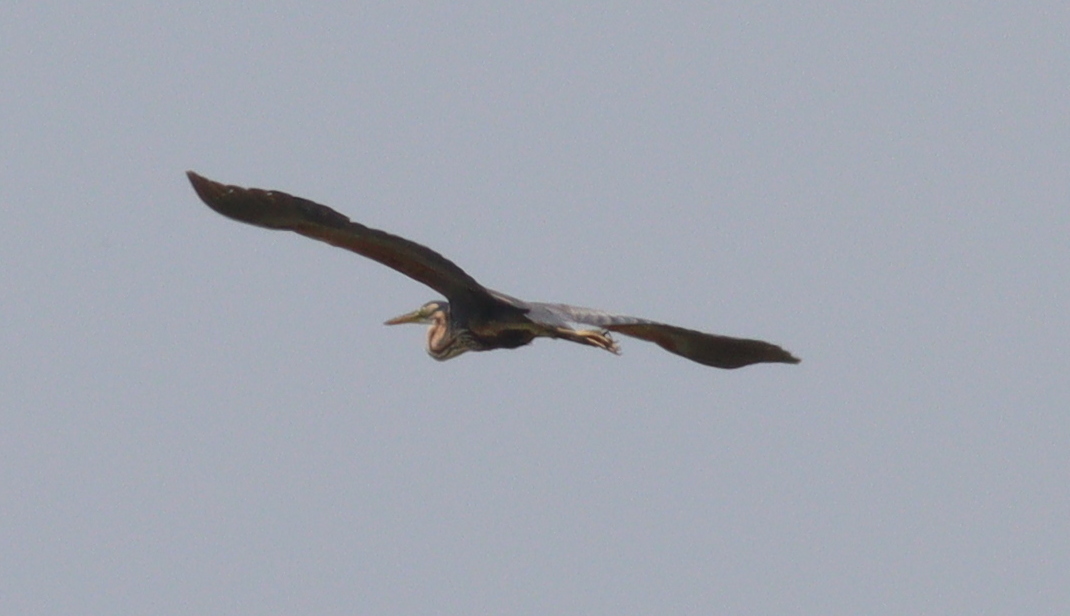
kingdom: Animalia
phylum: Chordata
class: Aves
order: Pelecaniformes
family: Ardeidae
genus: Ardea
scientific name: Ardea purpurea
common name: Purple heron
